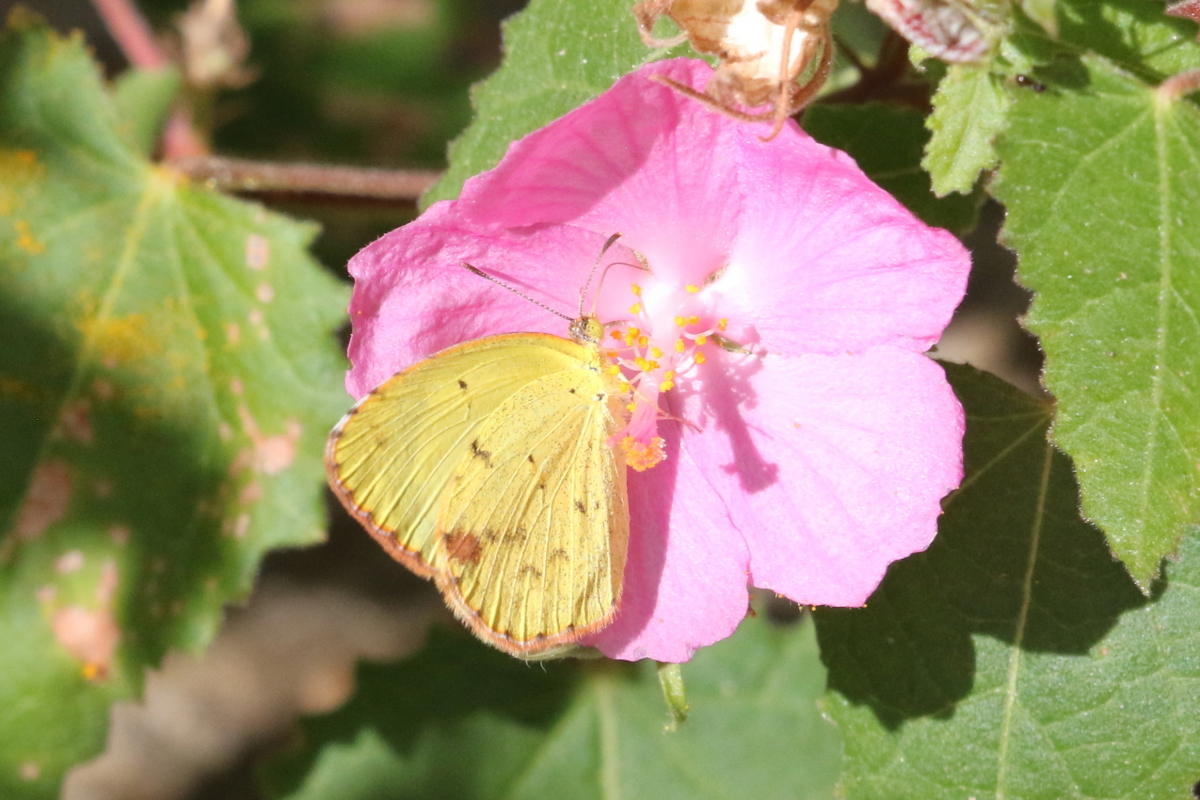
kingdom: Animalia
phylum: Arthropoda
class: Insecta
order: Lepidoptera
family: Pieridae
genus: Pyrisitia
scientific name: Pyrisitia lisa
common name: Little yellow
